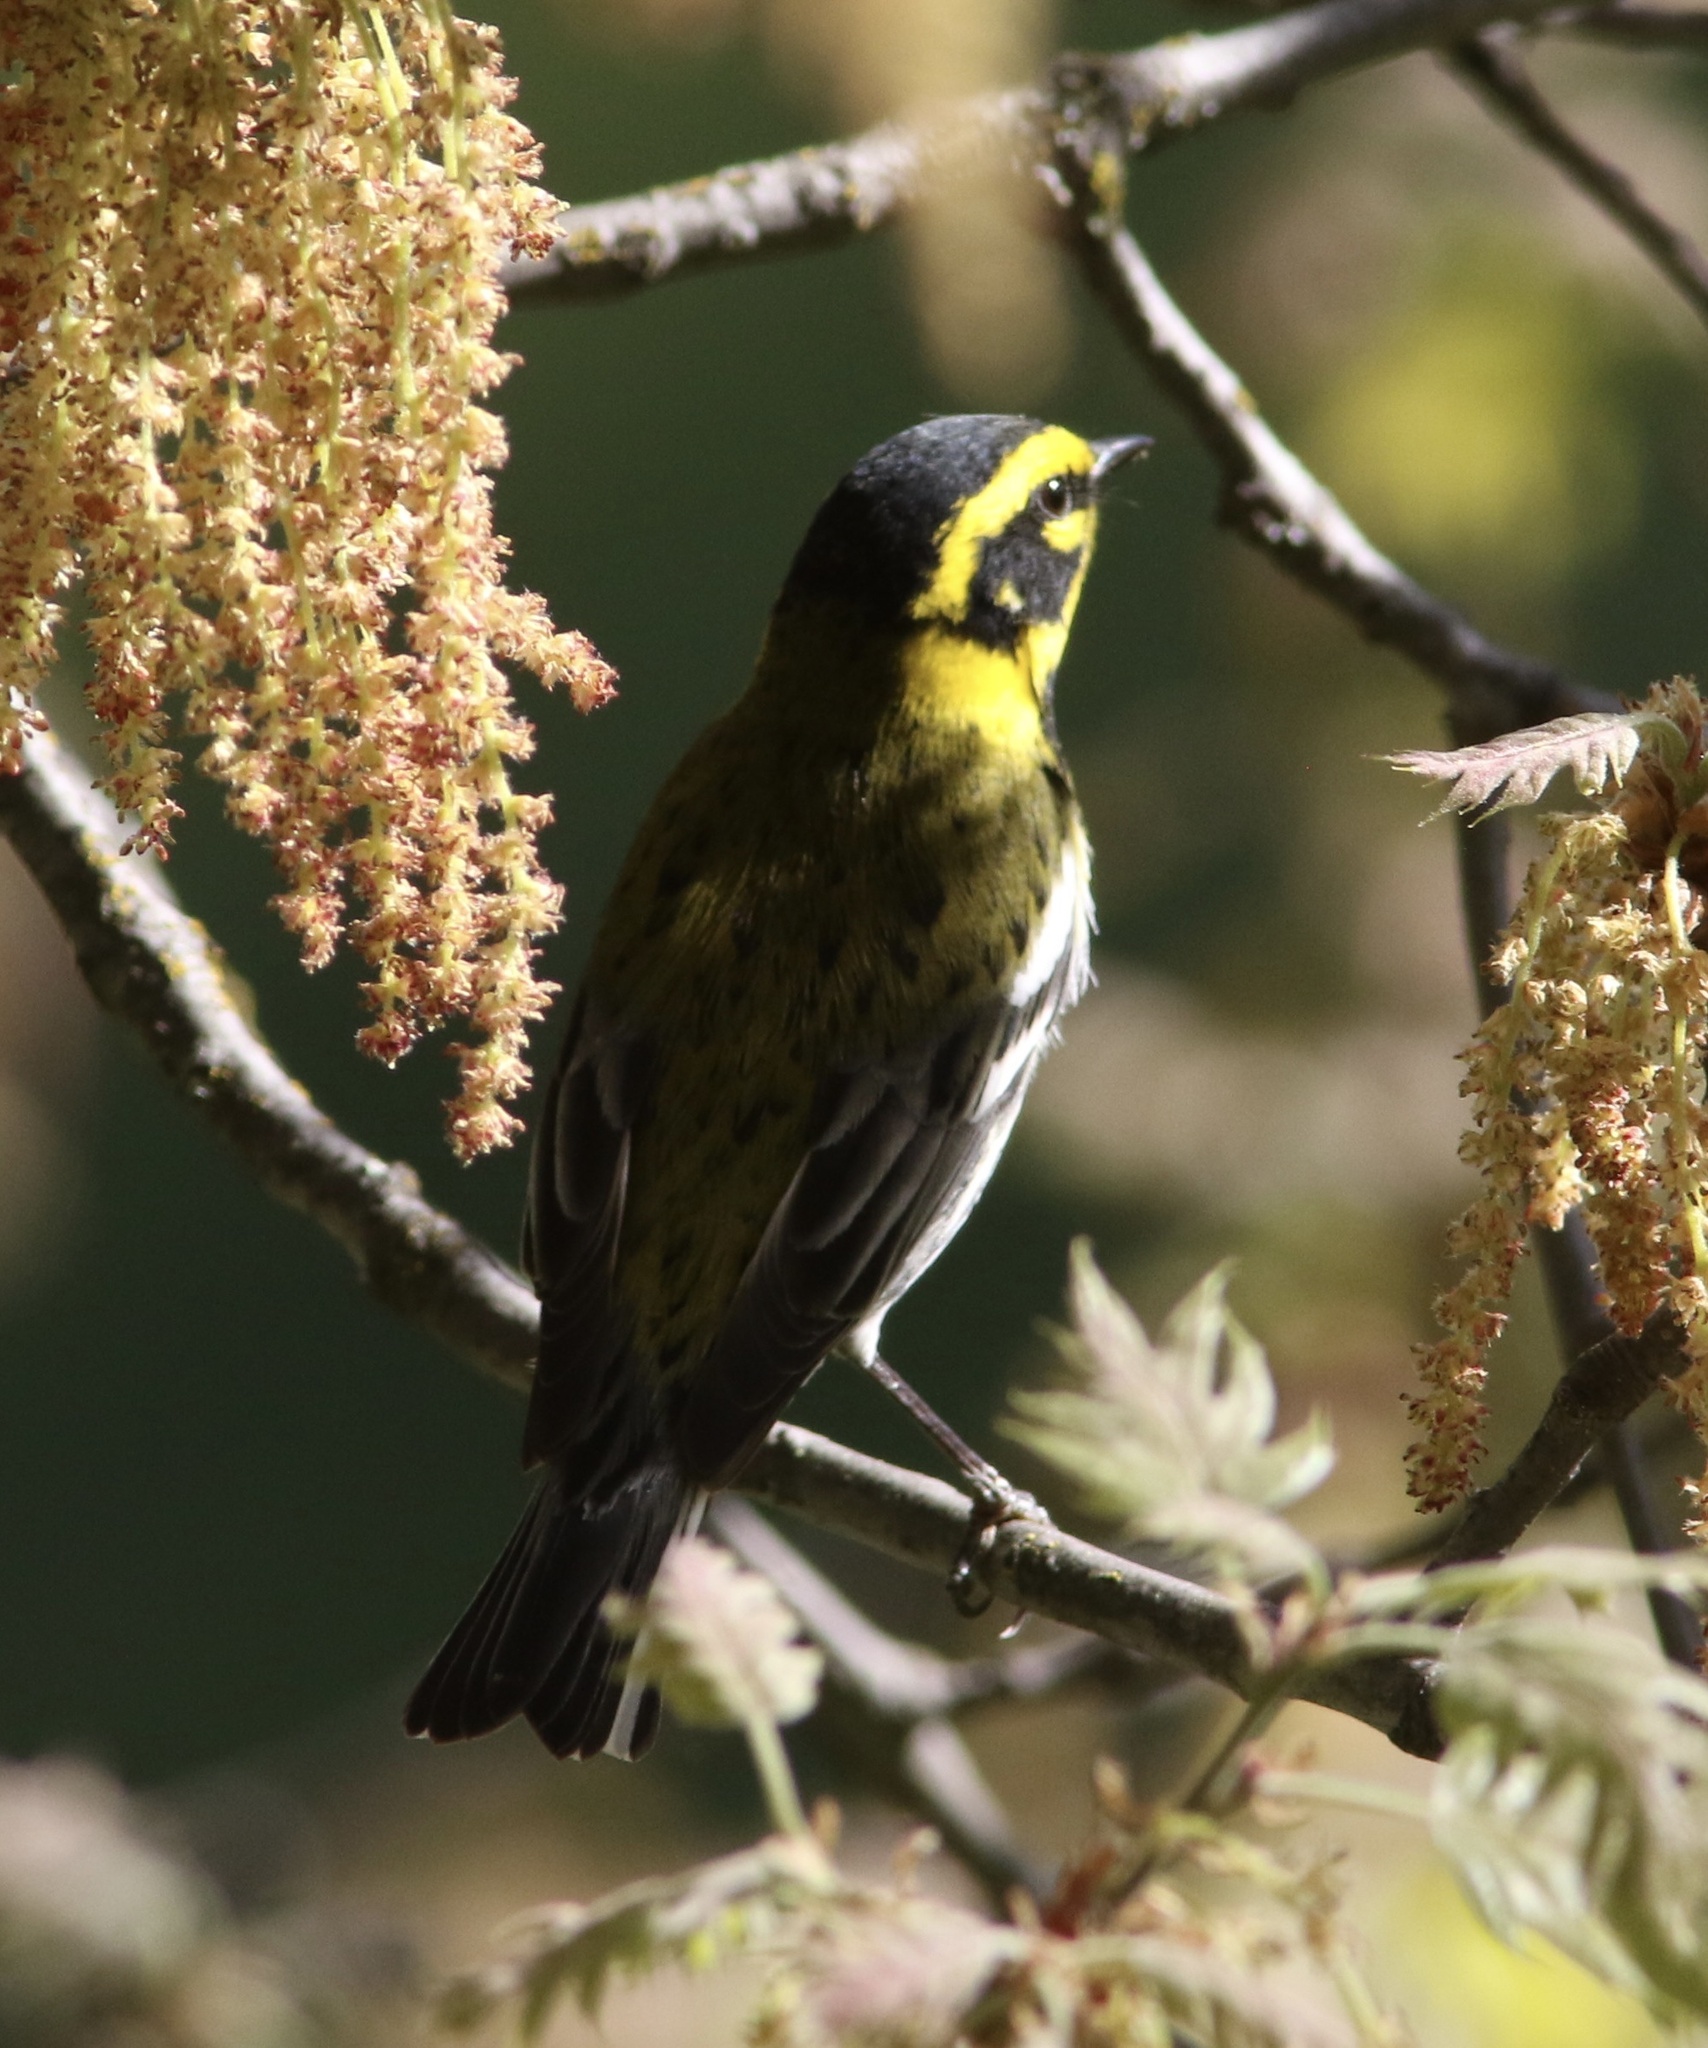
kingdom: Animalia
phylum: Chordata
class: Aves
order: Passeriformes
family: Parulidae
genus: Setophaga
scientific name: Setophaga townsendi
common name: Townsend's warbler
